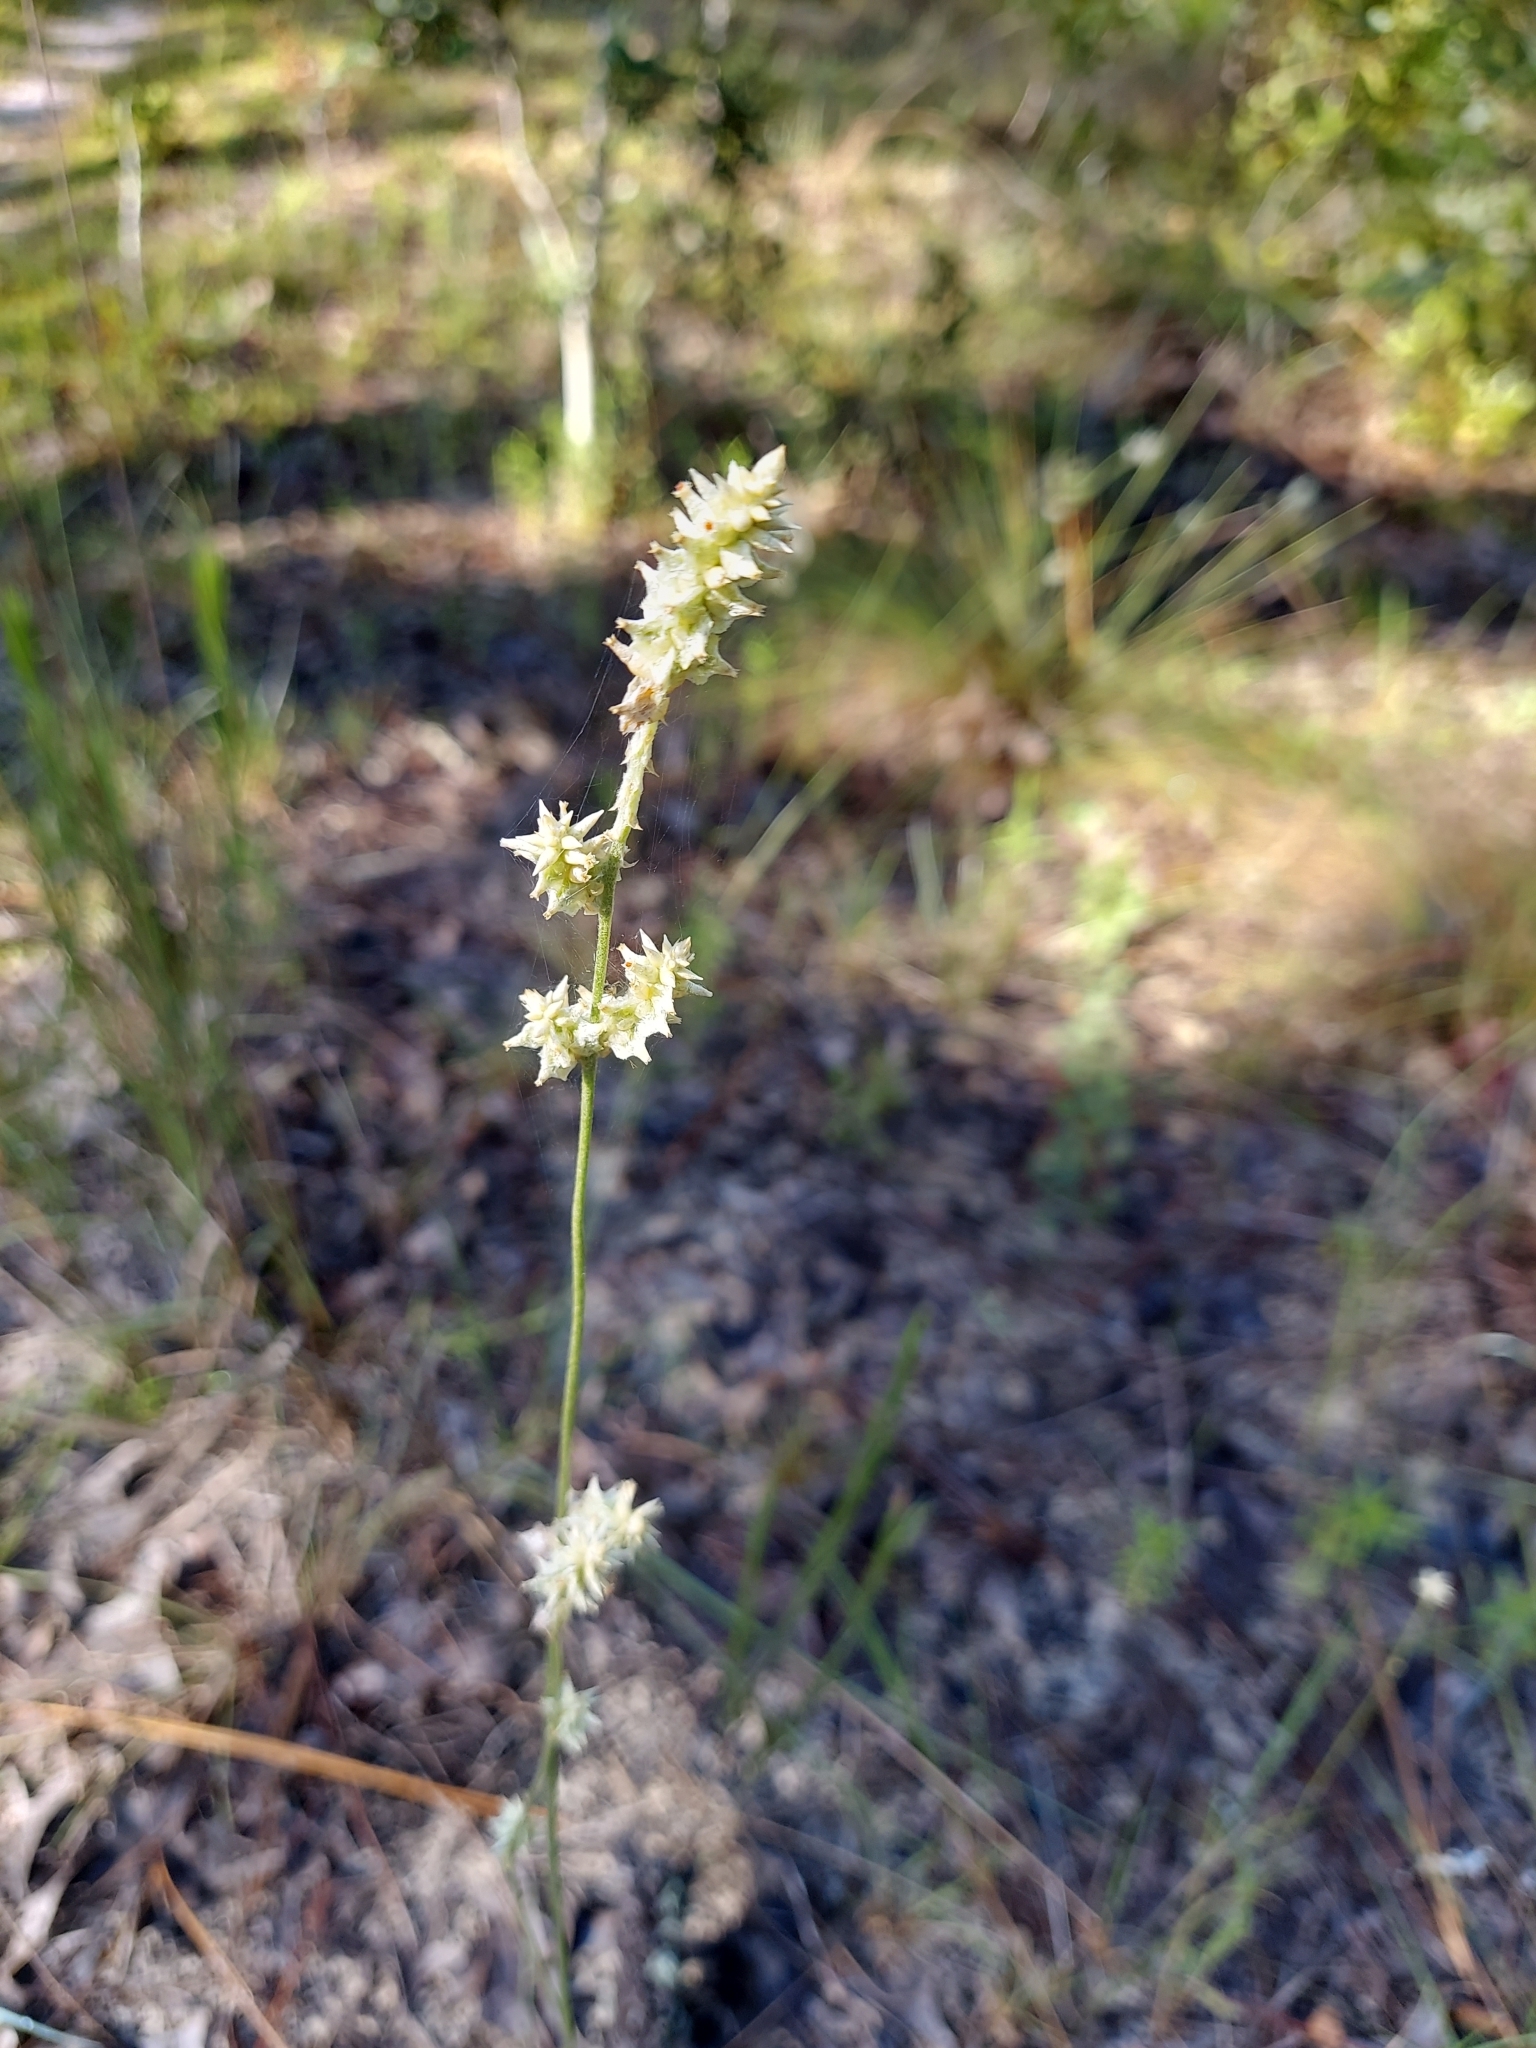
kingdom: Plantae
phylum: Tracheophyta
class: Magnoliopsida
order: Caryophyllales
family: Amaranthaceae
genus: Froelichia
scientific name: Froelichia floridana
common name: Florida snake-cotton
